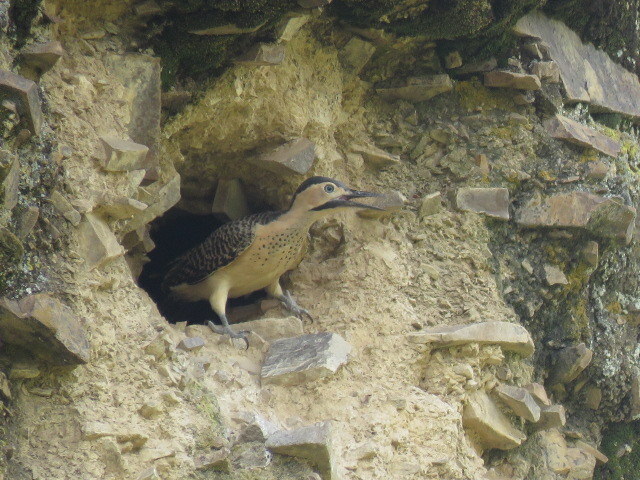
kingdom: Animalia
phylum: Chordata
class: Aves
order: Piciformes
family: Picidae
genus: Colaptes
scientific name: Colaptes rupicola
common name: Andean flicker
